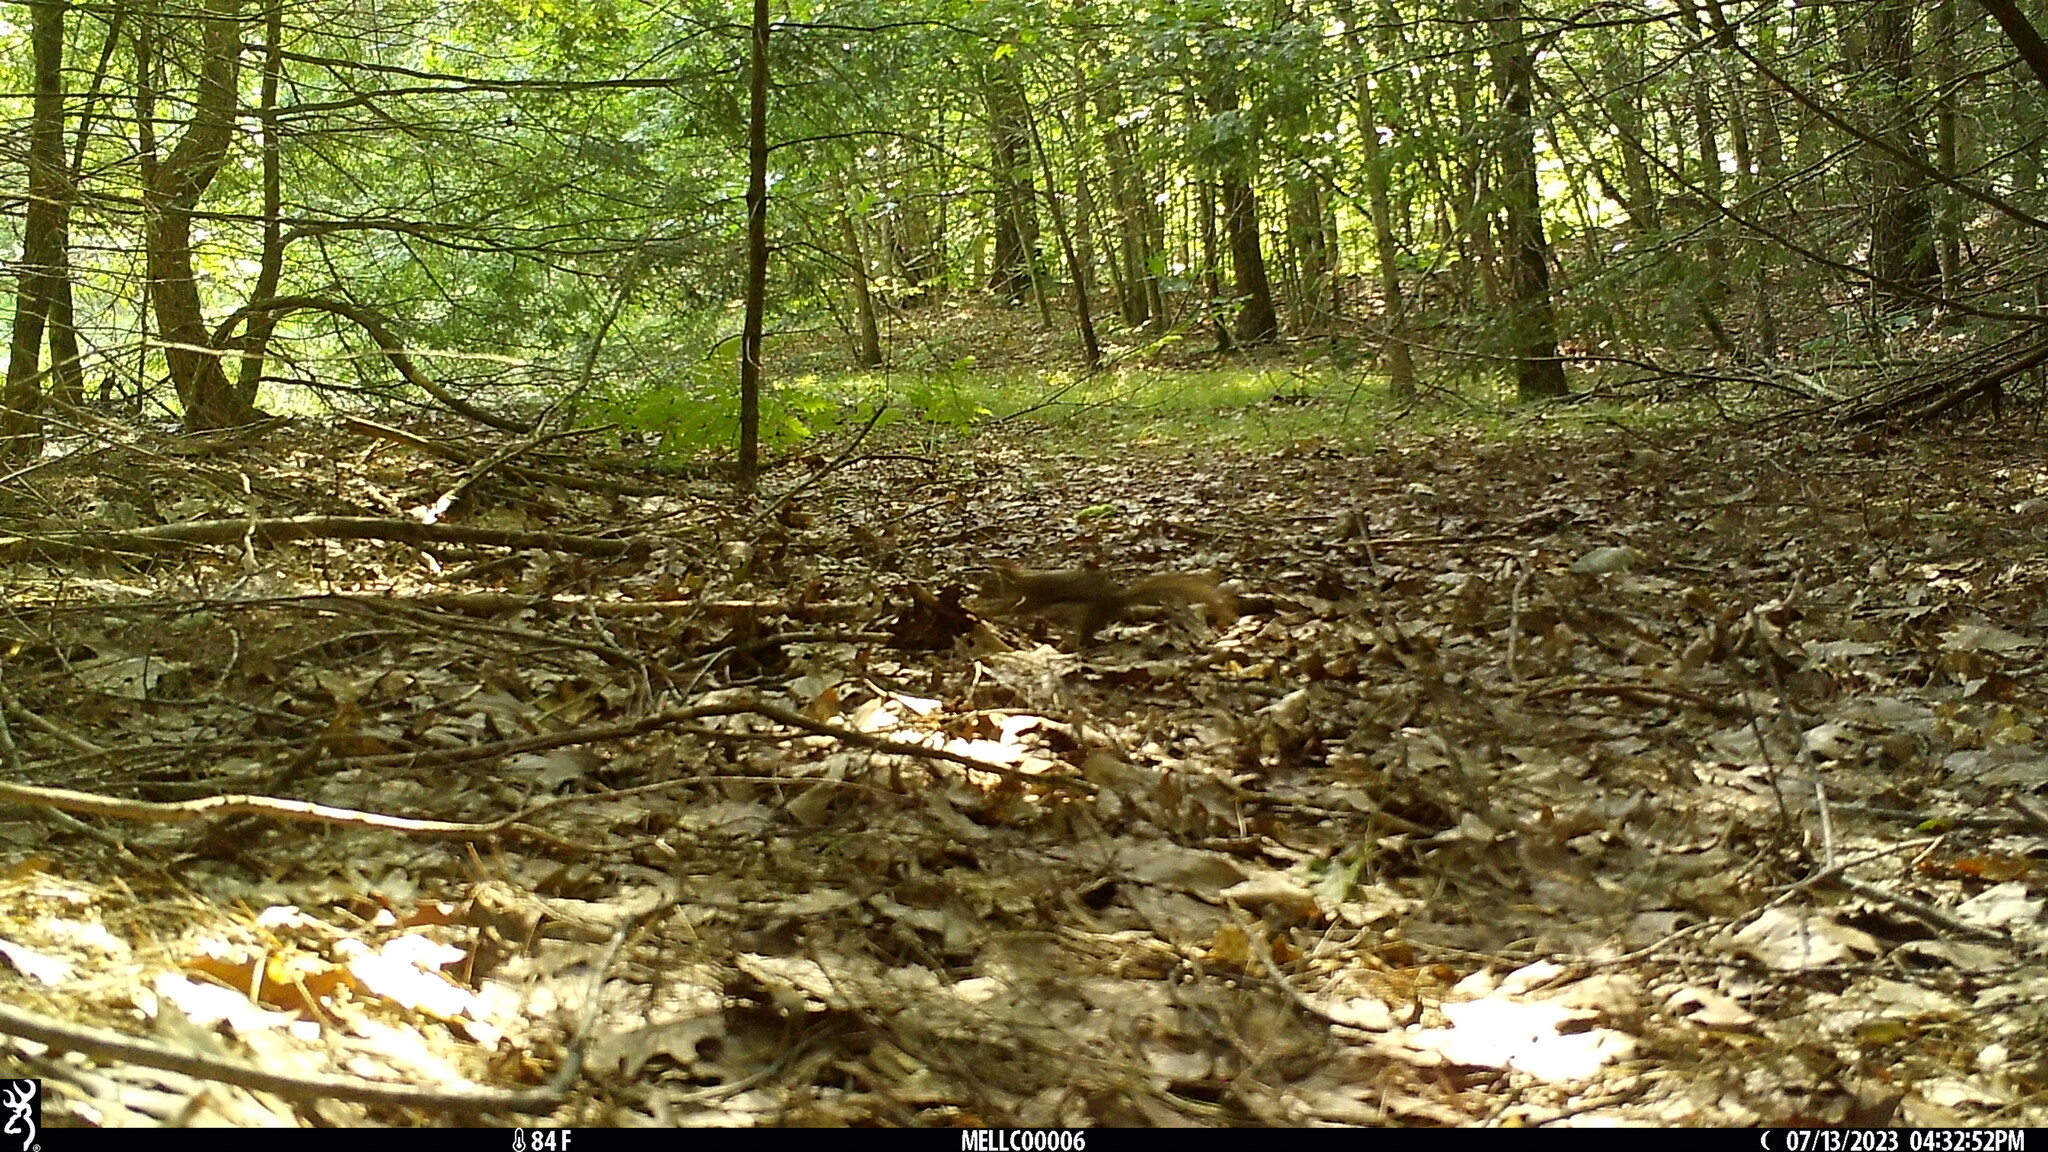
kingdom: Animalia
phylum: Chordata
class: Mammalia
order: Rodentia
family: Sciuridae
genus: Tamiasciurus
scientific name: Tamiasciurus hudsonicus
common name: Red squirrel
